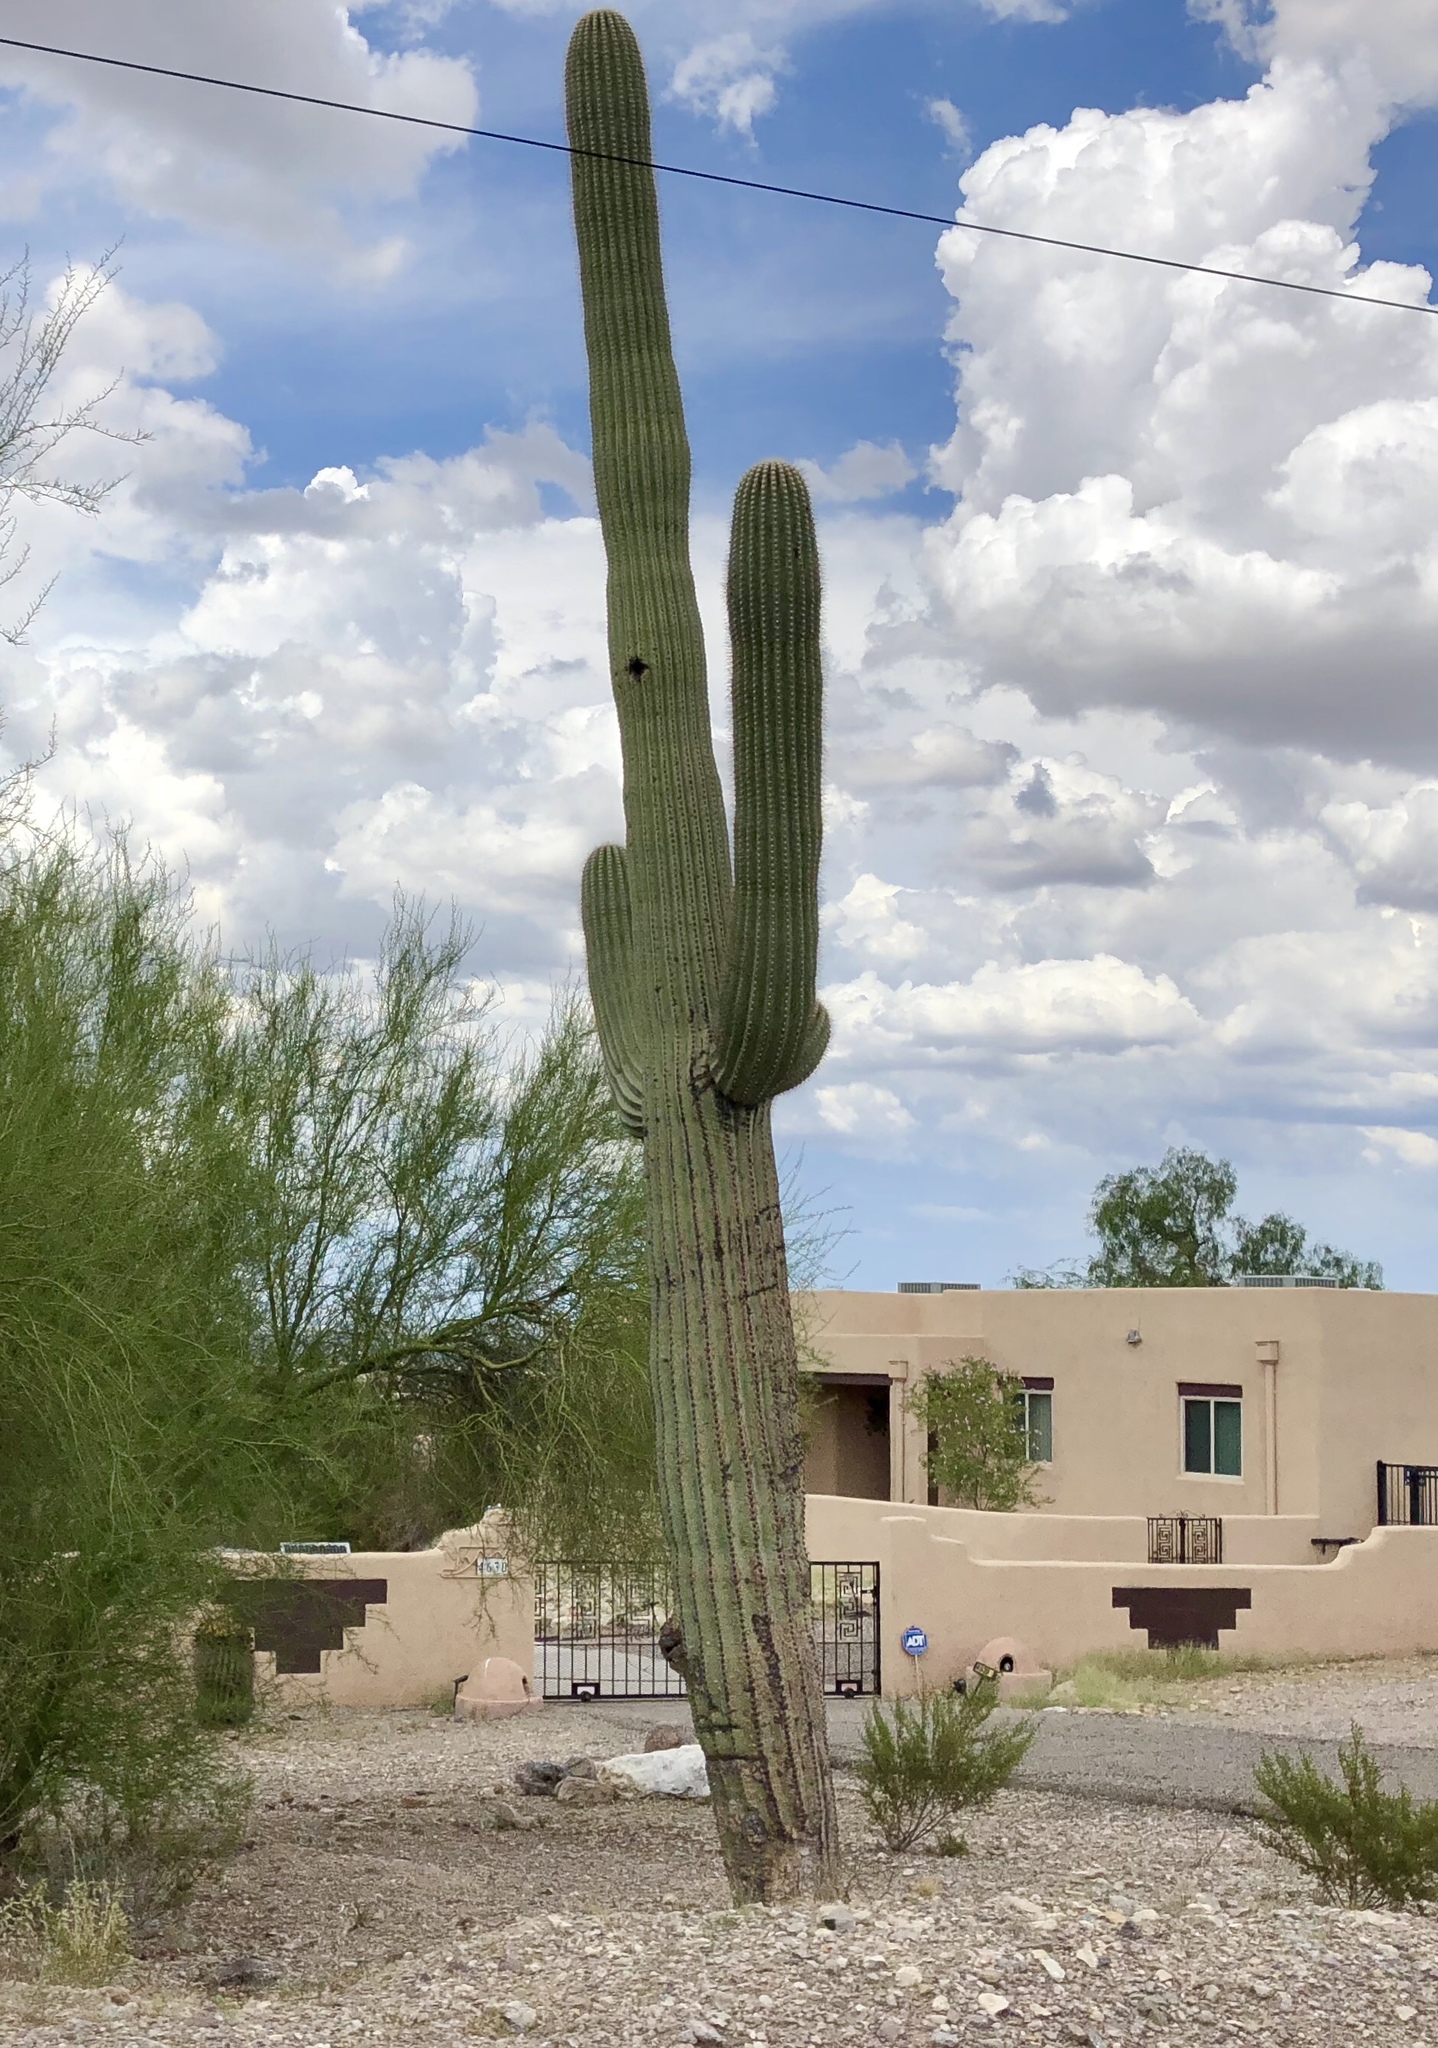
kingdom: Plantae
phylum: Tracheophyta
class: Magnoliopsida
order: Caryophyllales
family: Cactaceae
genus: Carnegiea
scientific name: Carnegiea gigantea
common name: Saguaro
